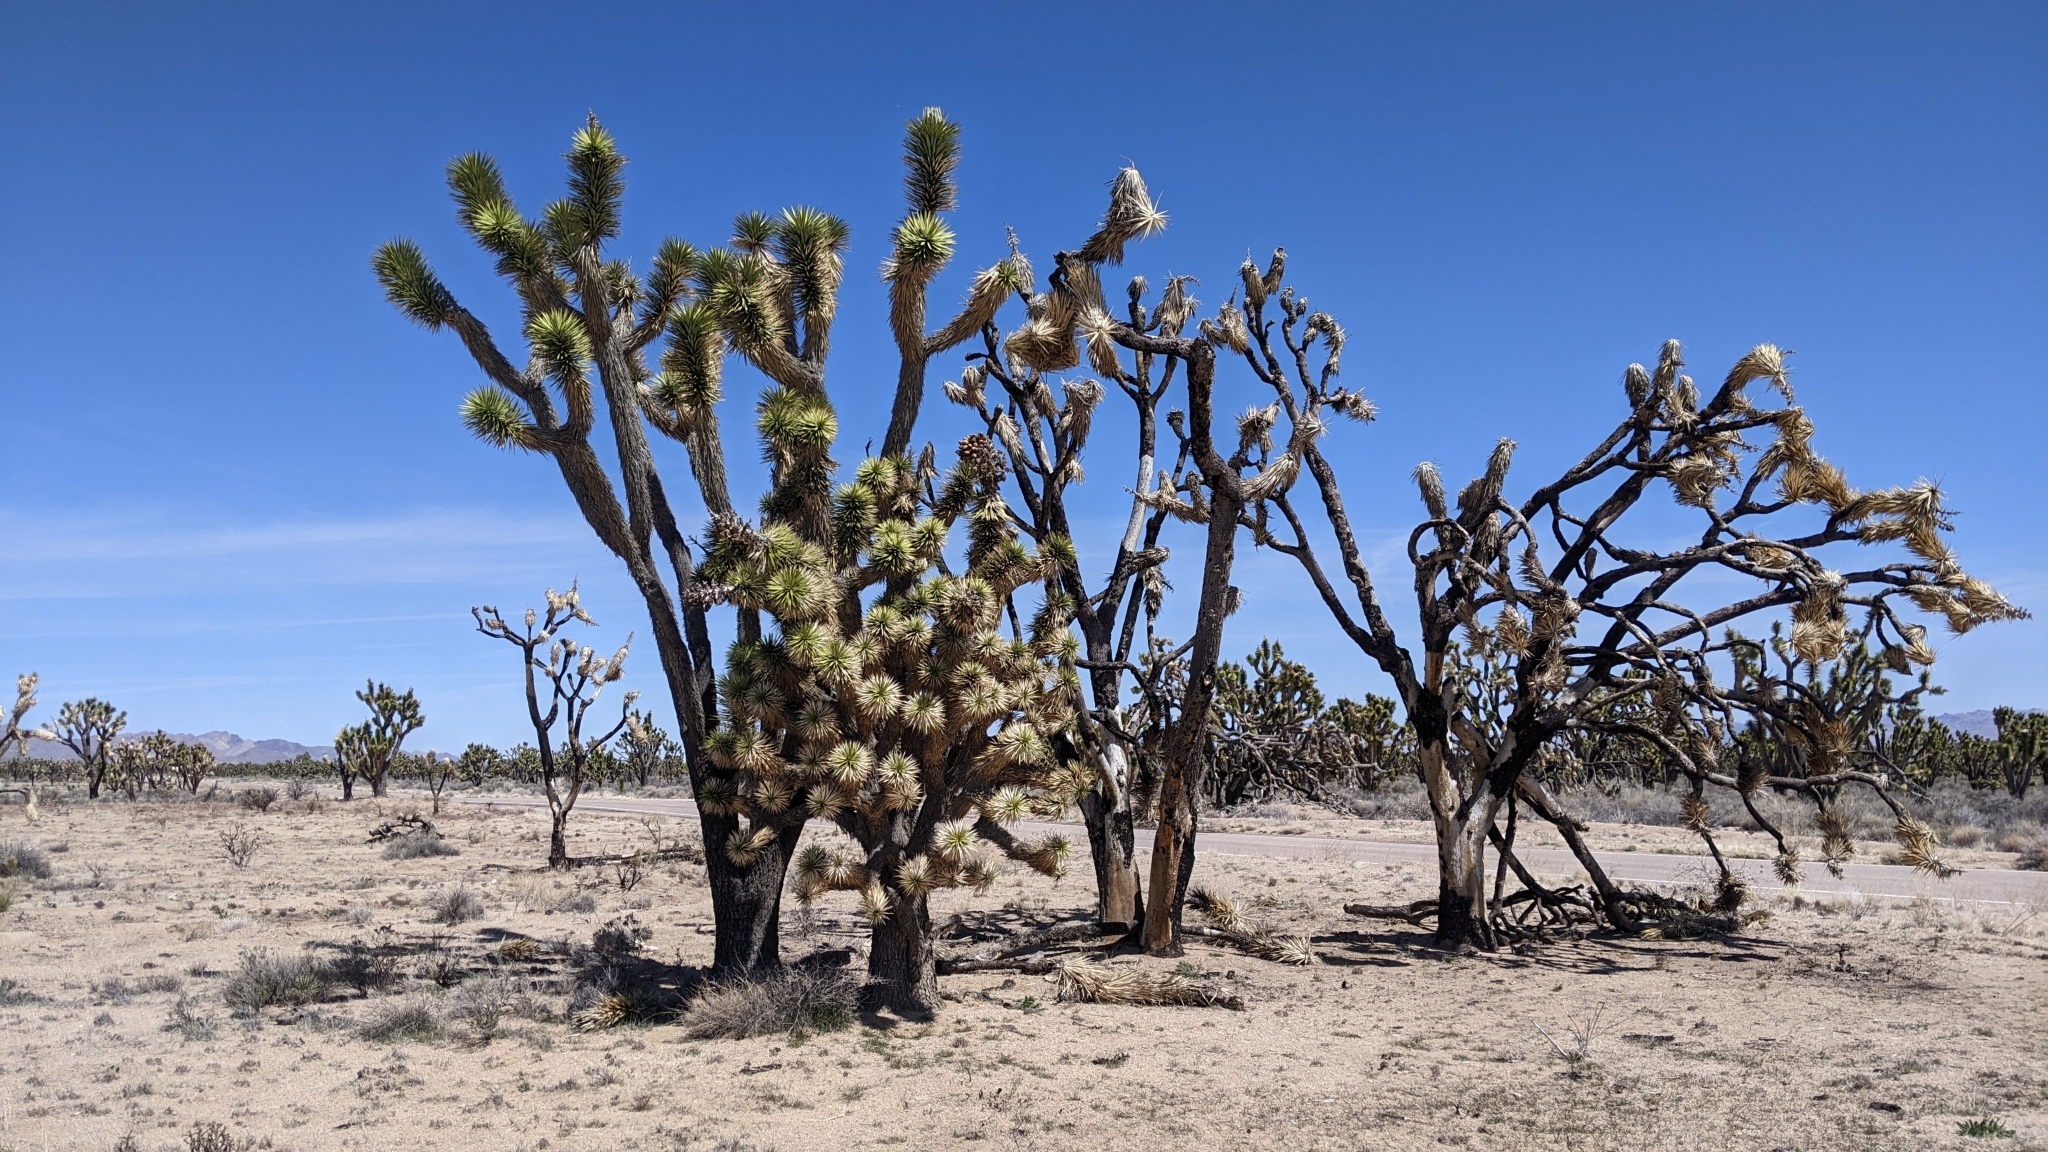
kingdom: Plantae
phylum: Tracheophyta
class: Liliopsida
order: Asparagales
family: Asparagaceae
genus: Yucca
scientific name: Yucca brevifolia
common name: Joshua tree
